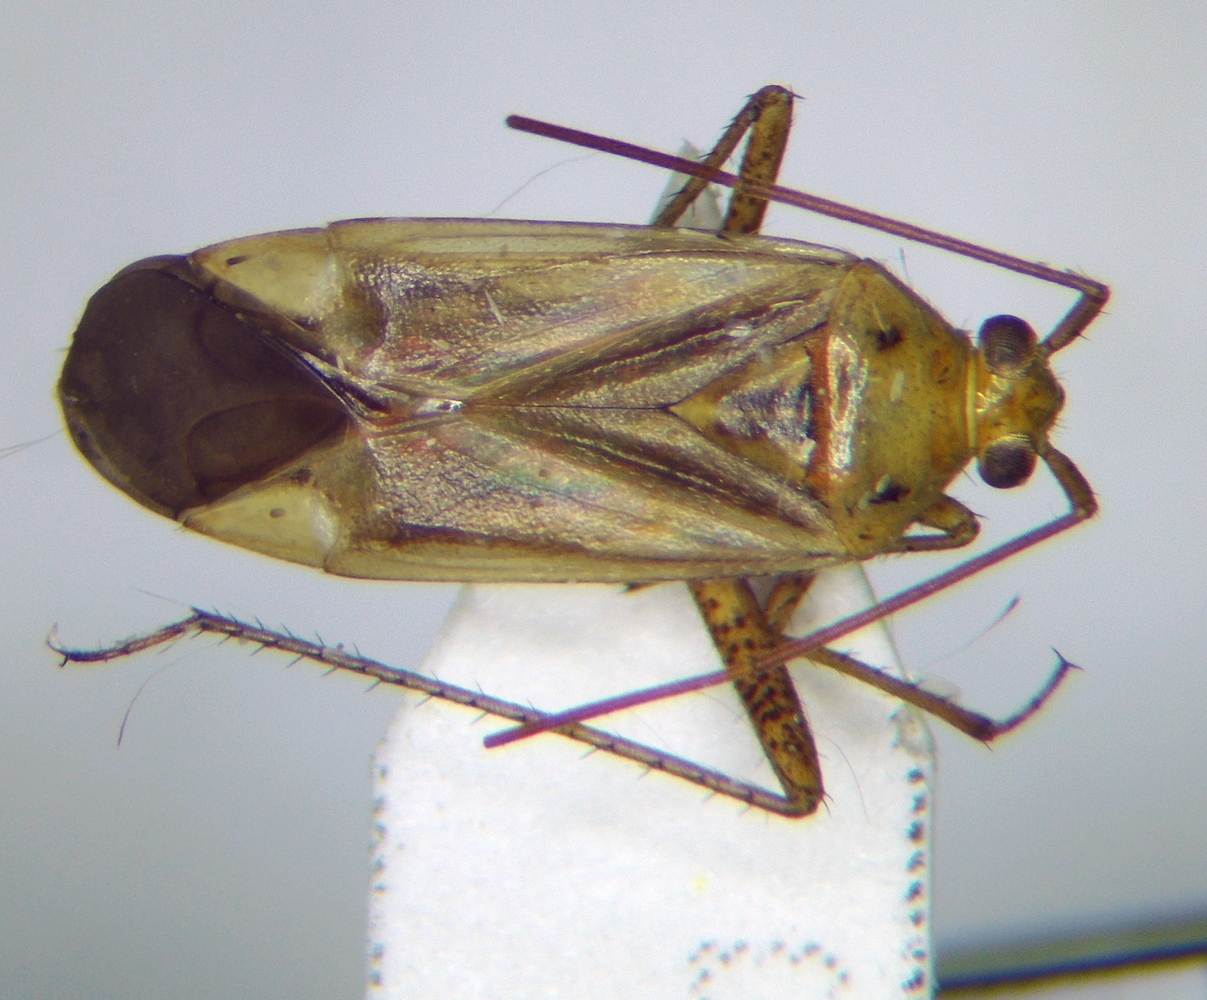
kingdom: Animalia
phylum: Arthropoda
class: Insecta
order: Hemiptera
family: Miridae
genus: Adelphocoris
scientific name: Adelphocoris lineolatus
